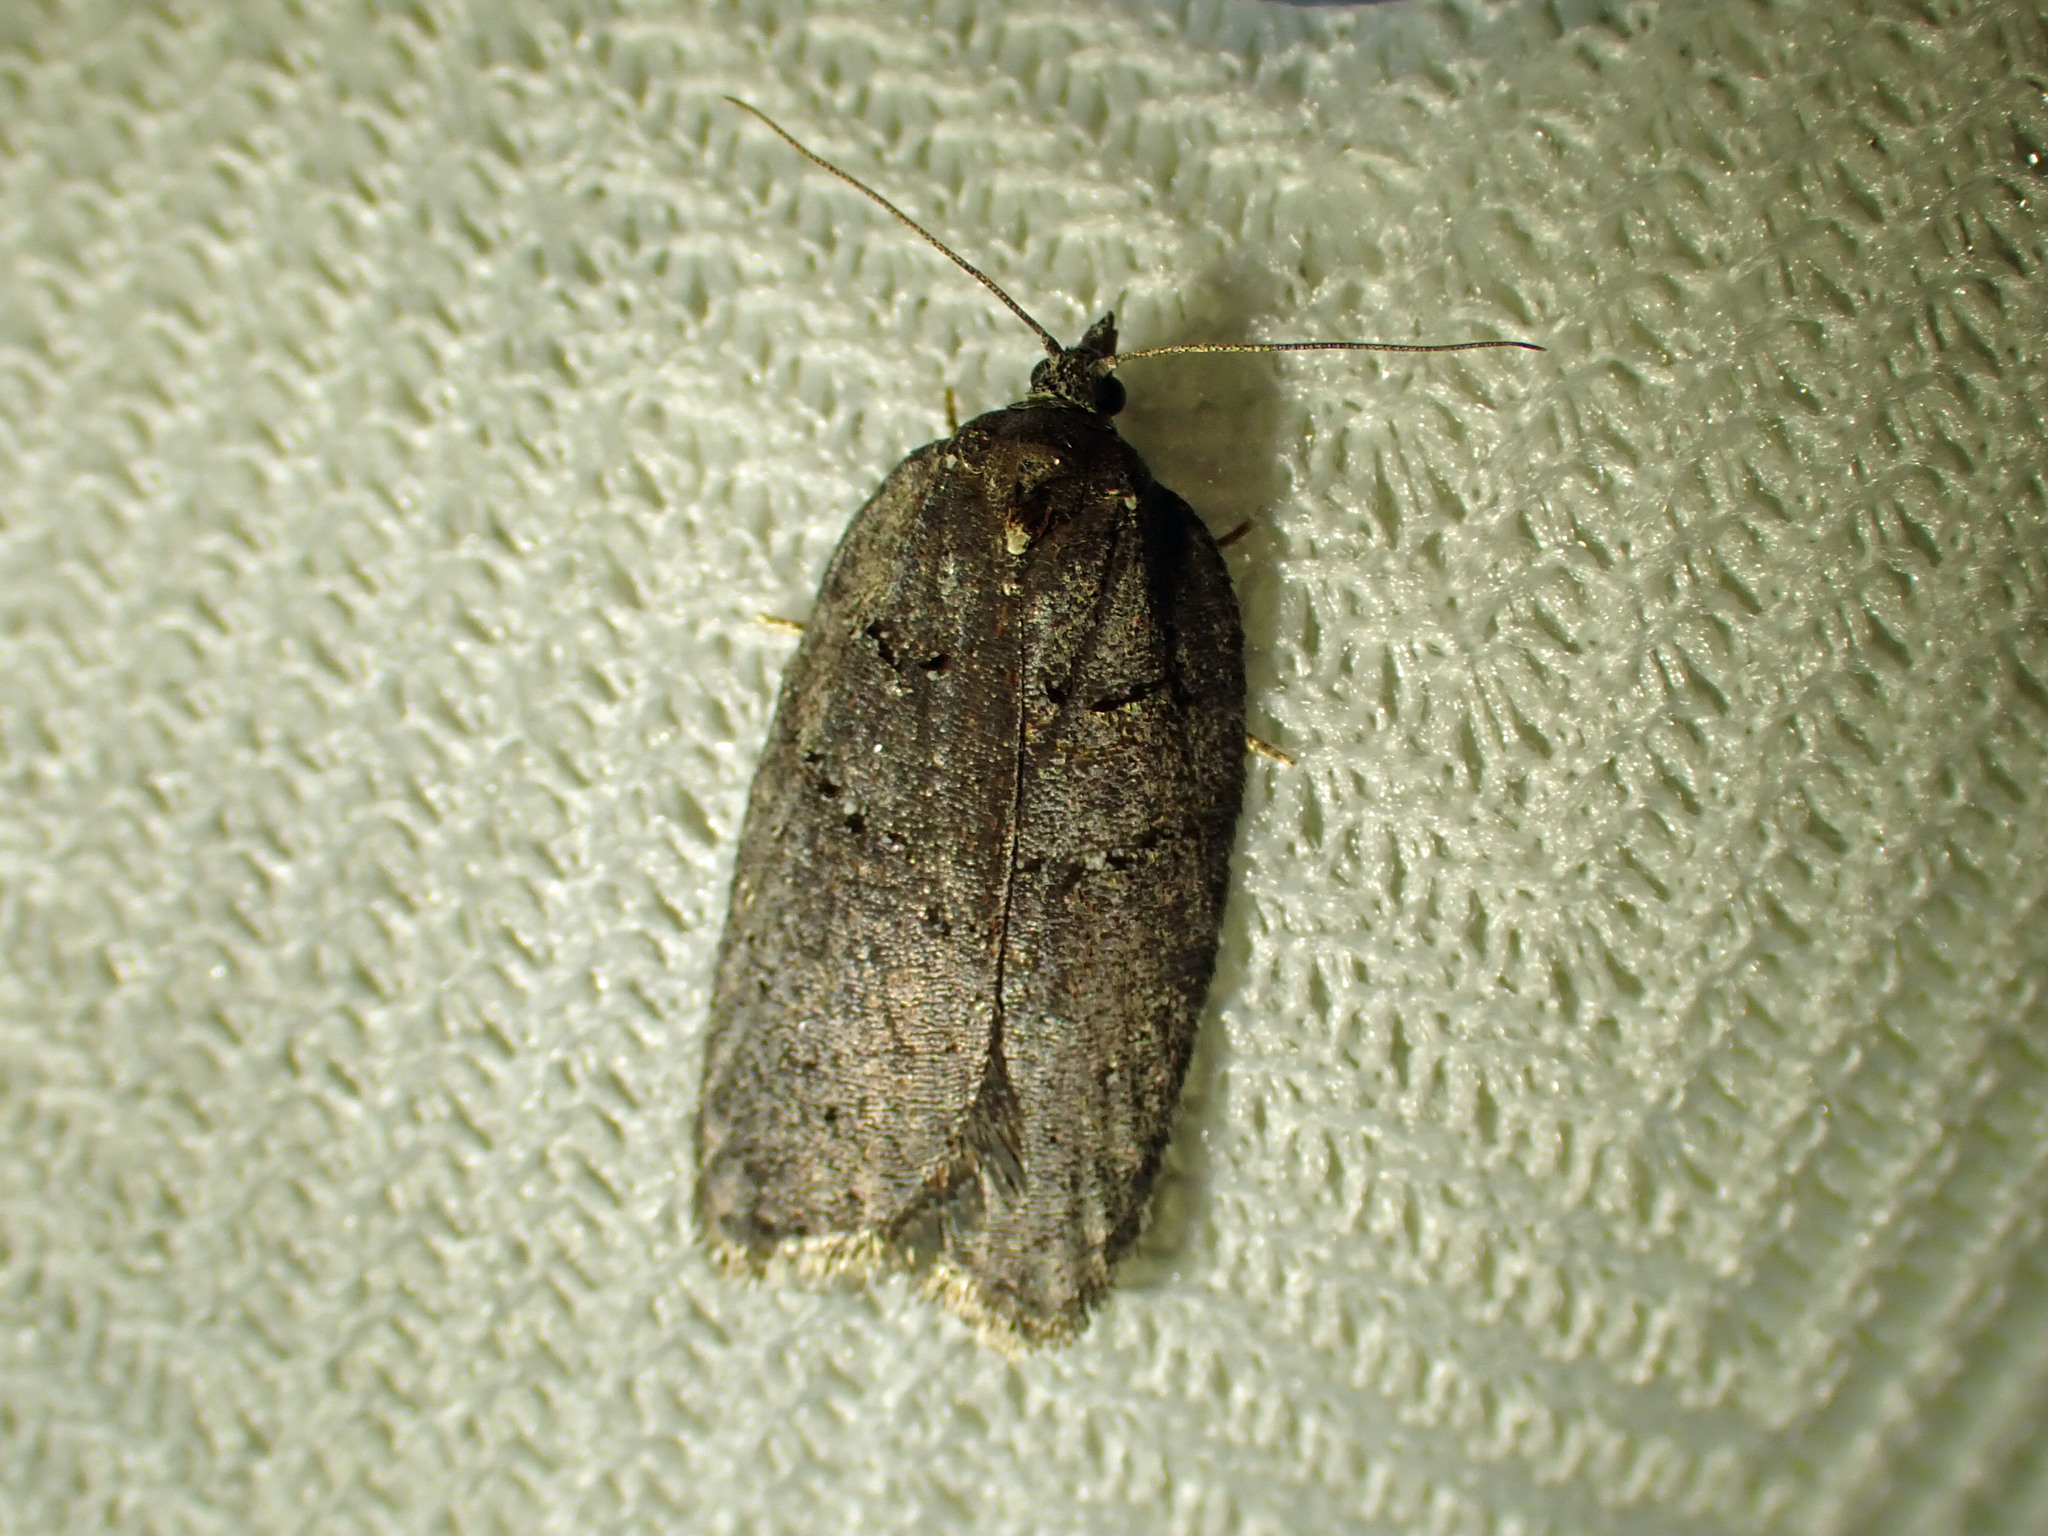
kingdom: Animalia
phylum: Arthropoda
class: Insecta
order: Lepidoptera
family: Tortricidae
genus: Acleris
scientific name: Acleris caliginosana
